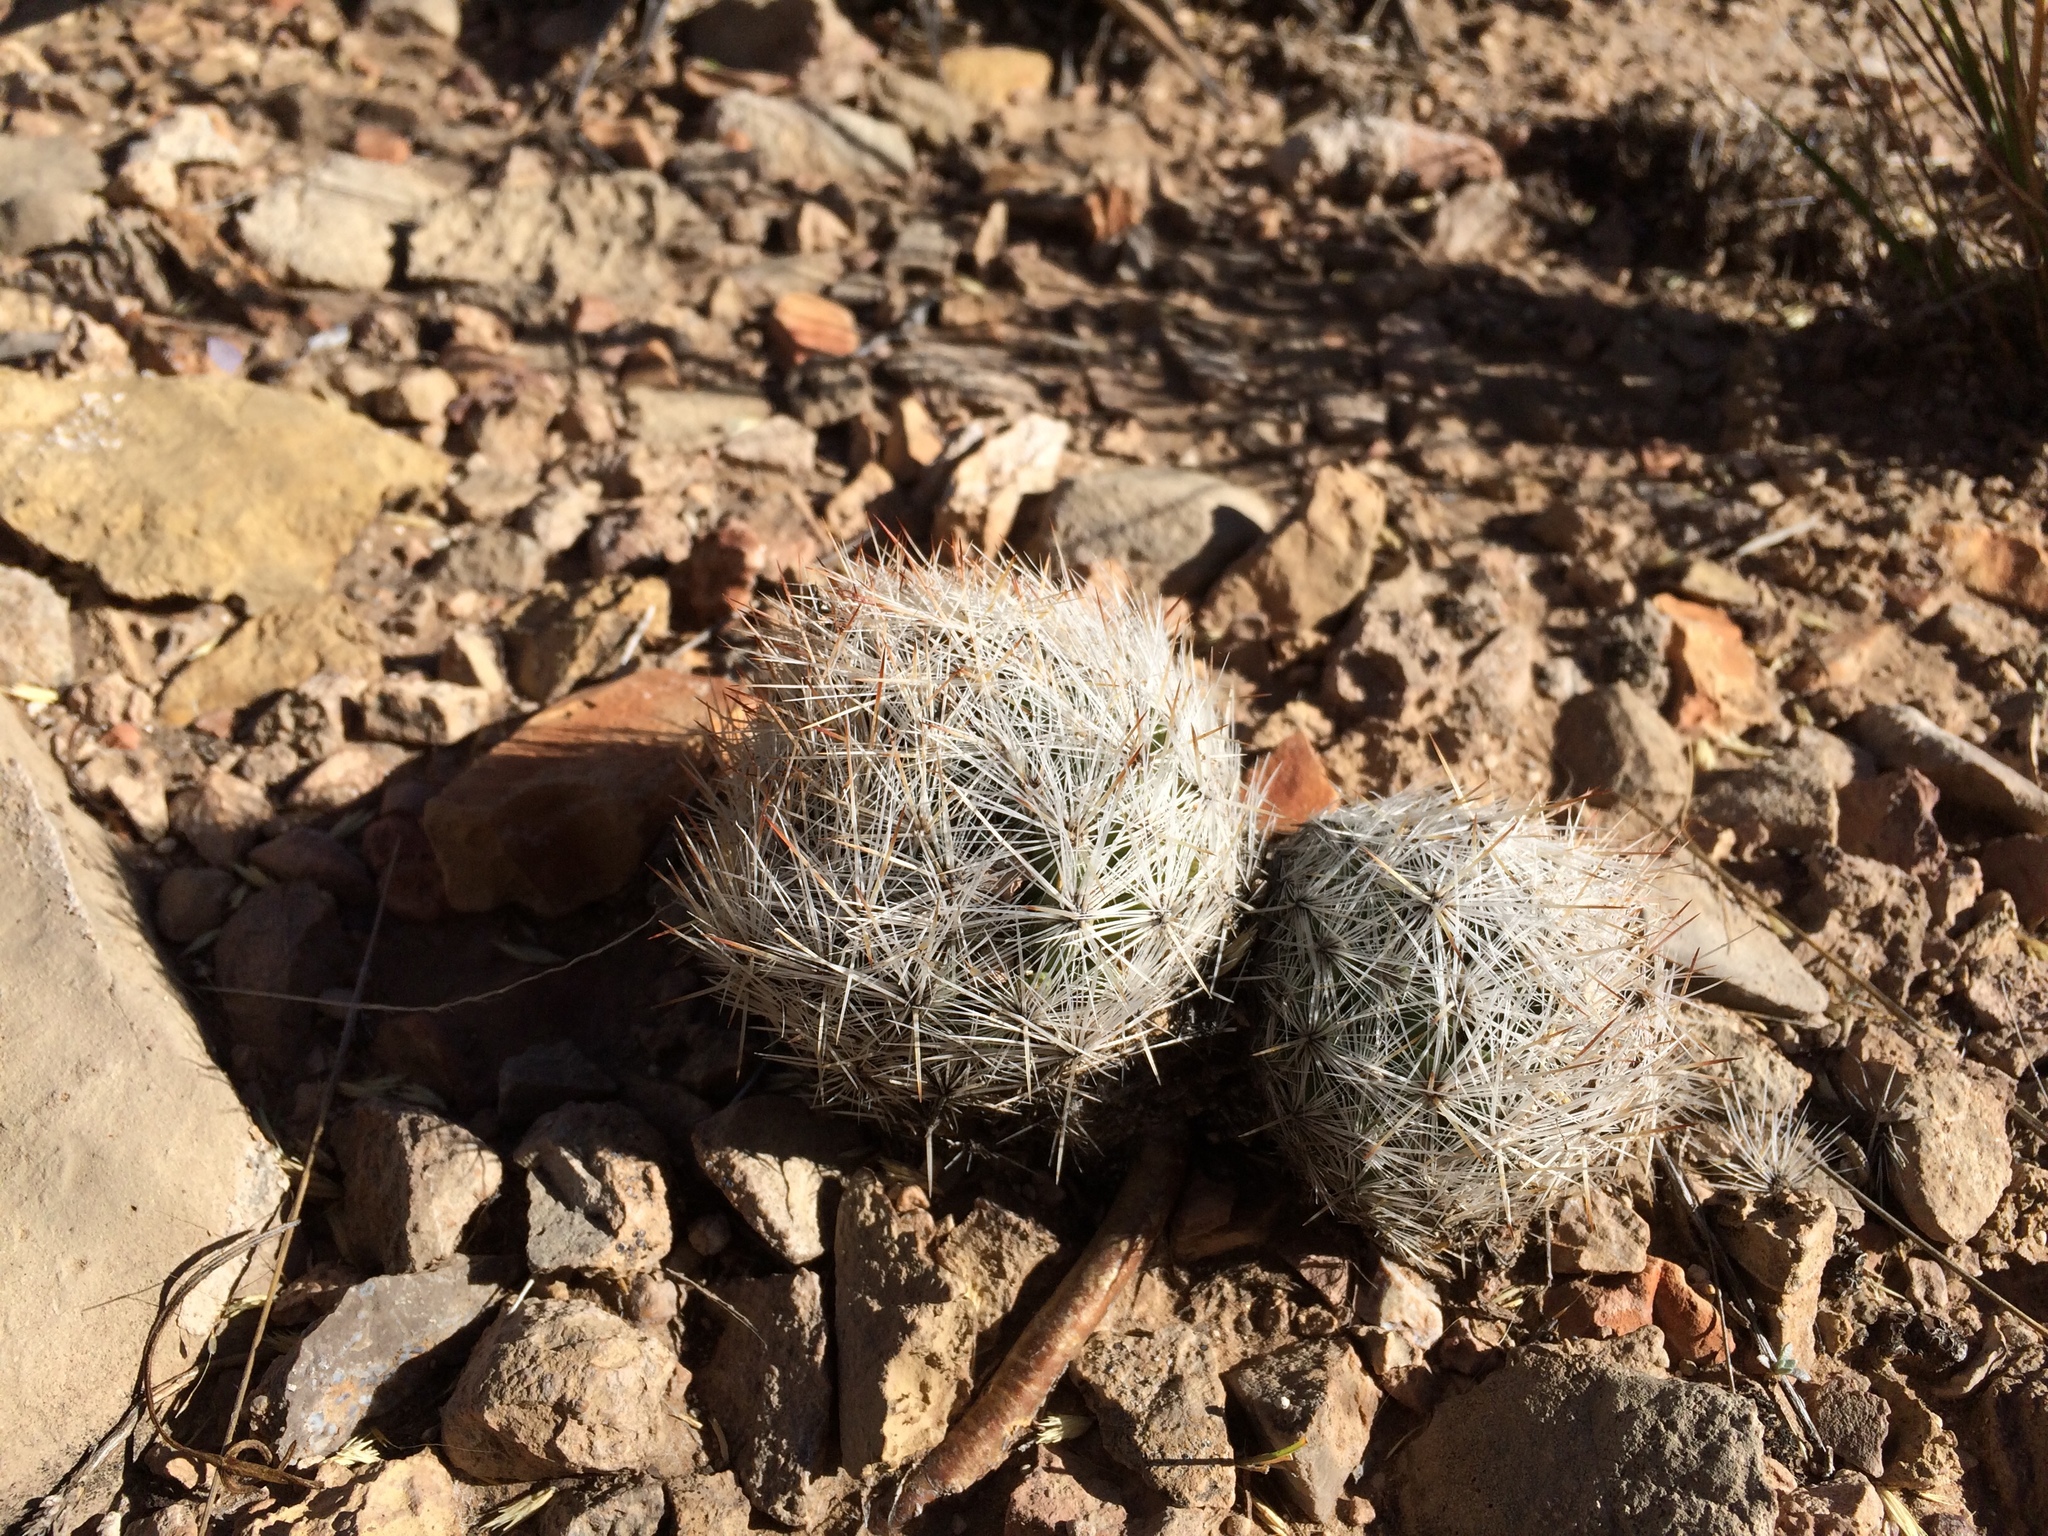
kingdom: Plantae
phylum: Tracheophyta
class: Magnoliopsida
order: Caryophyllales
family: Cactaceae
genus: Pelecyphora
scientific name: Pelecyphora vivipara
